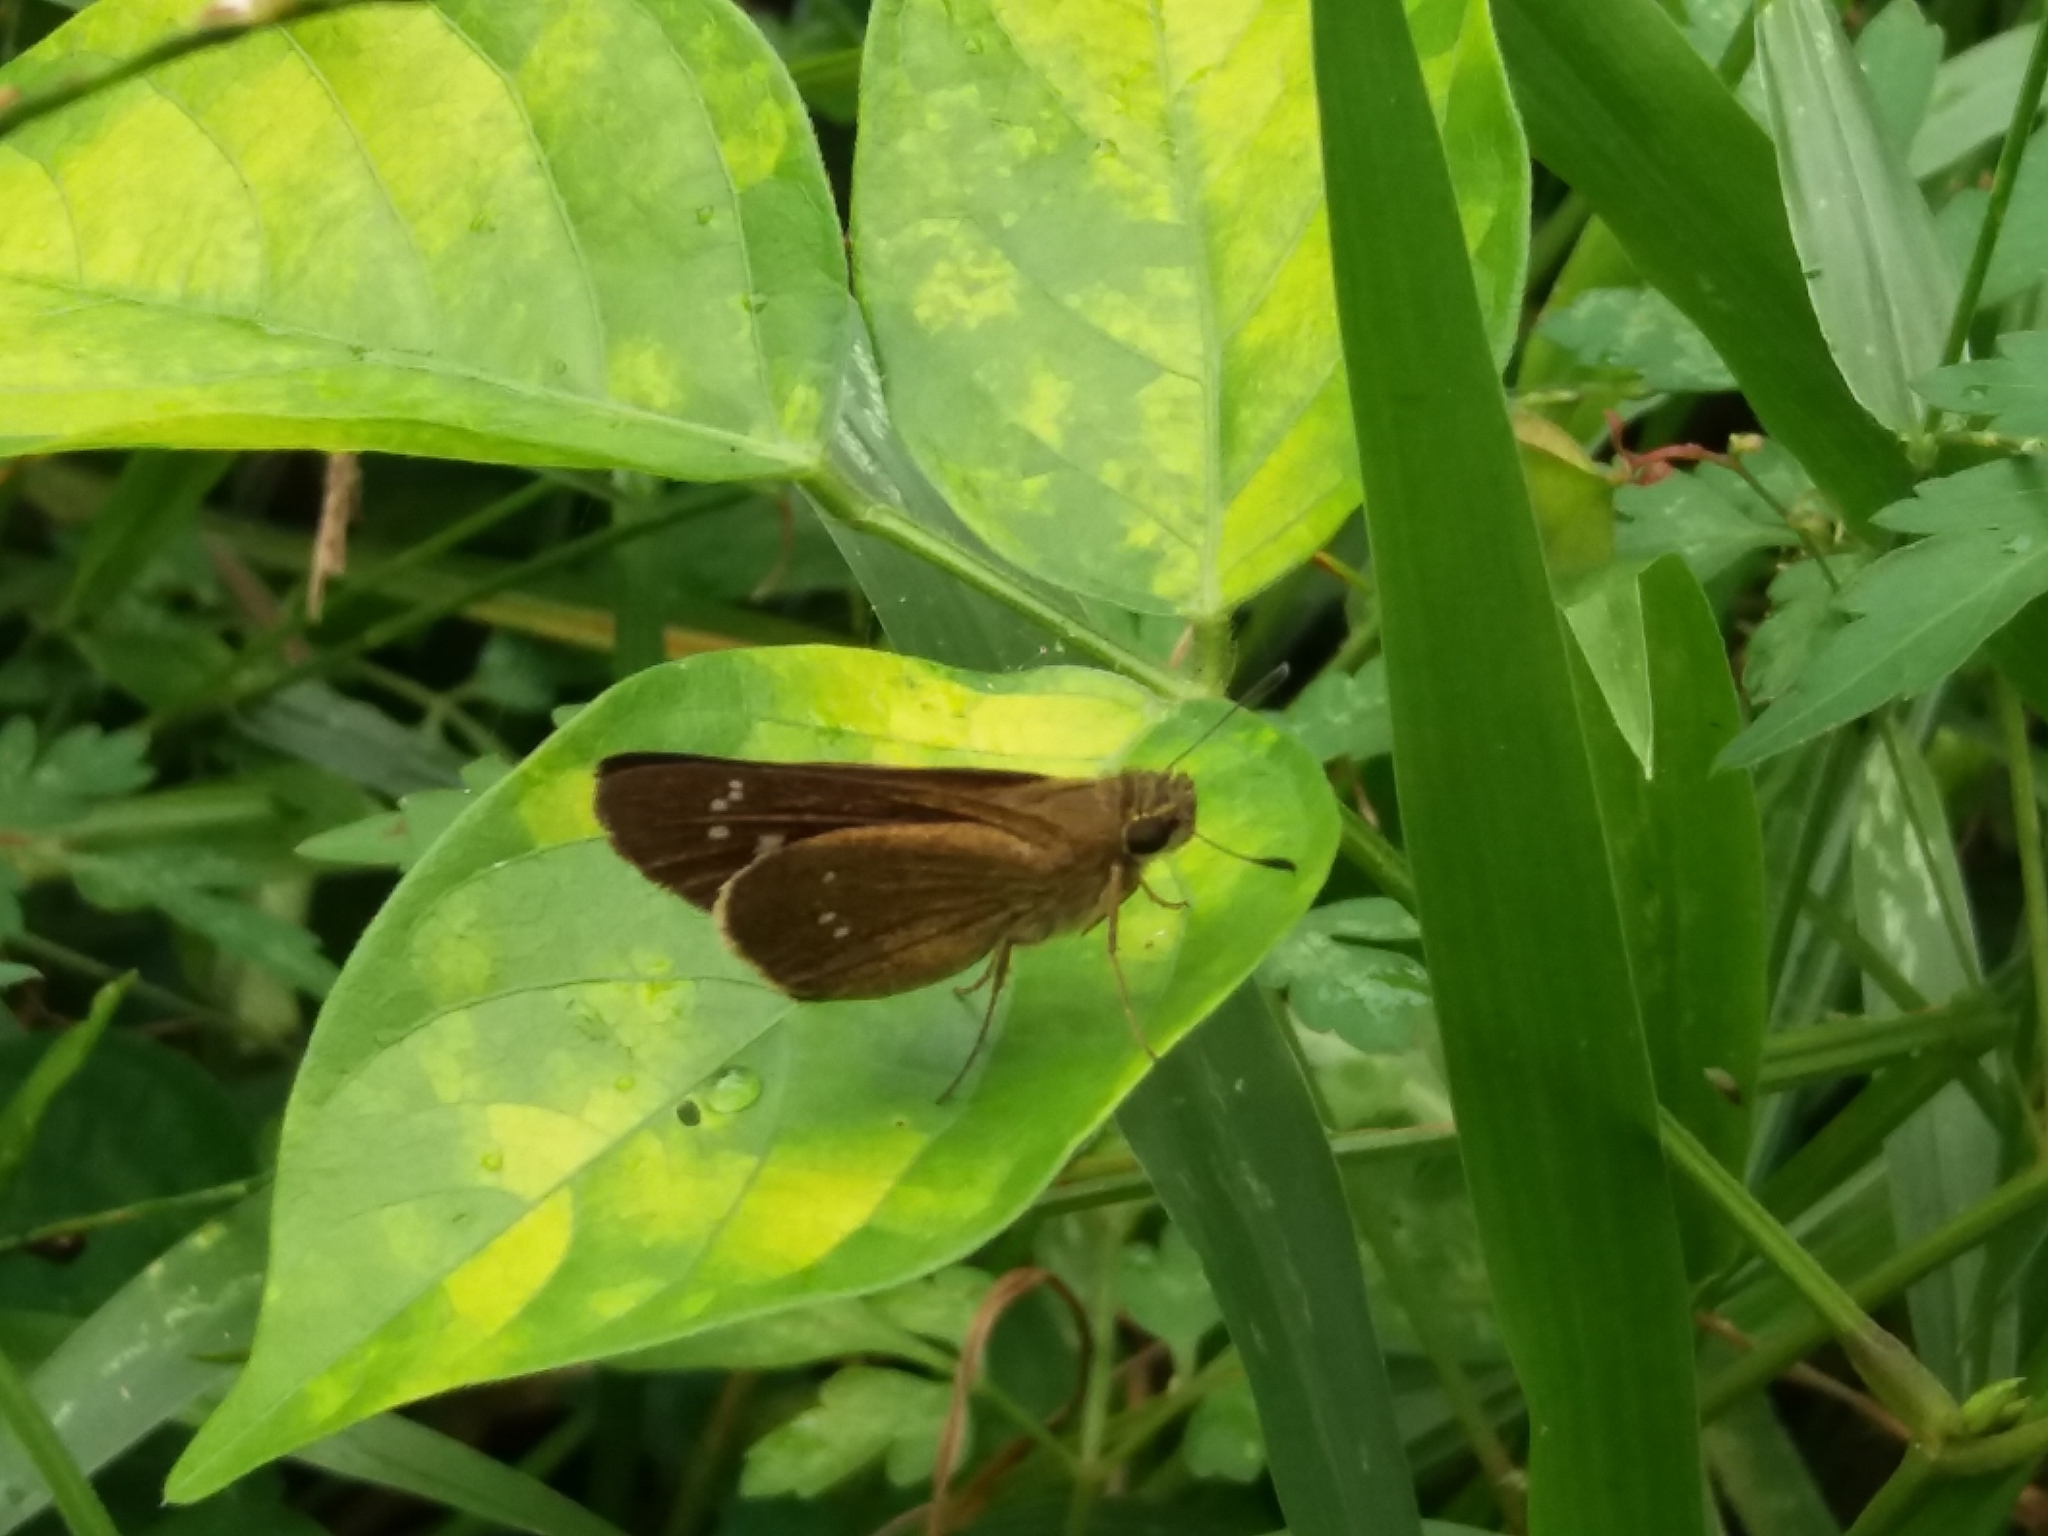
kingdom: Animalia
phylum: Arthropoda
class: Insecta
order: Lepidoptera
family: Hesperiidae
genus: Borbo
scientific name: Borbo cinnara
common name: Formosan swift
